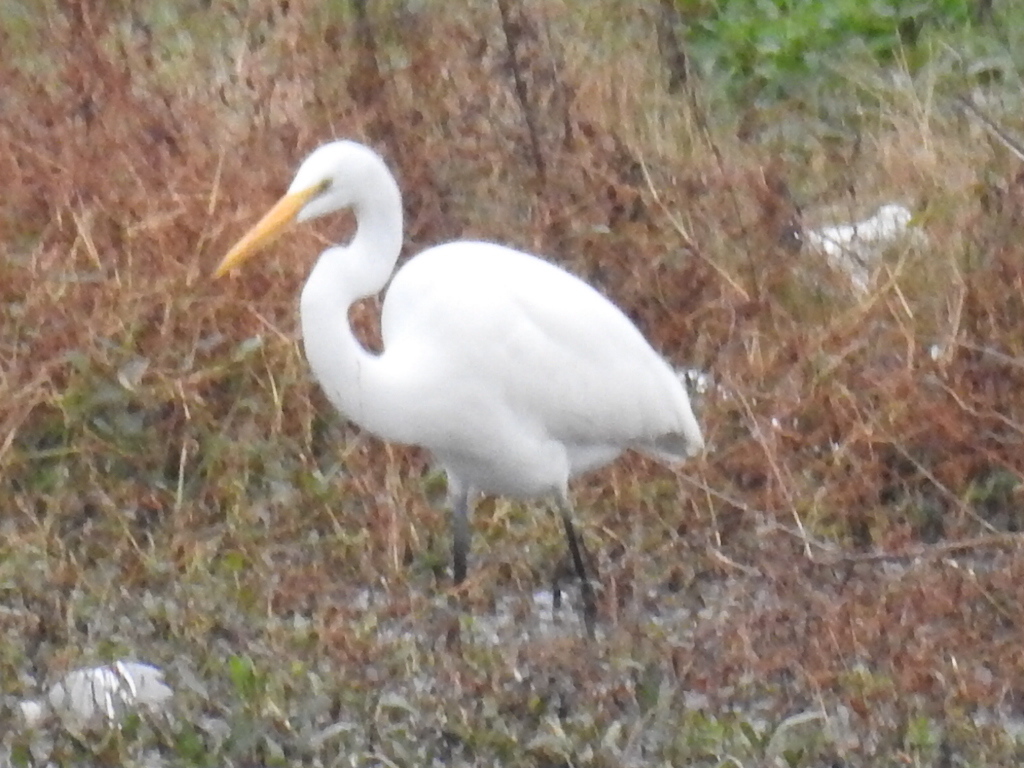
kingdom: Animalia
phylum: Chordata
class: Aves
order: Pelecaniformes
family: Ardeidae
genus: Ardea
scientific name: Ardea alba
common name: Great egret
